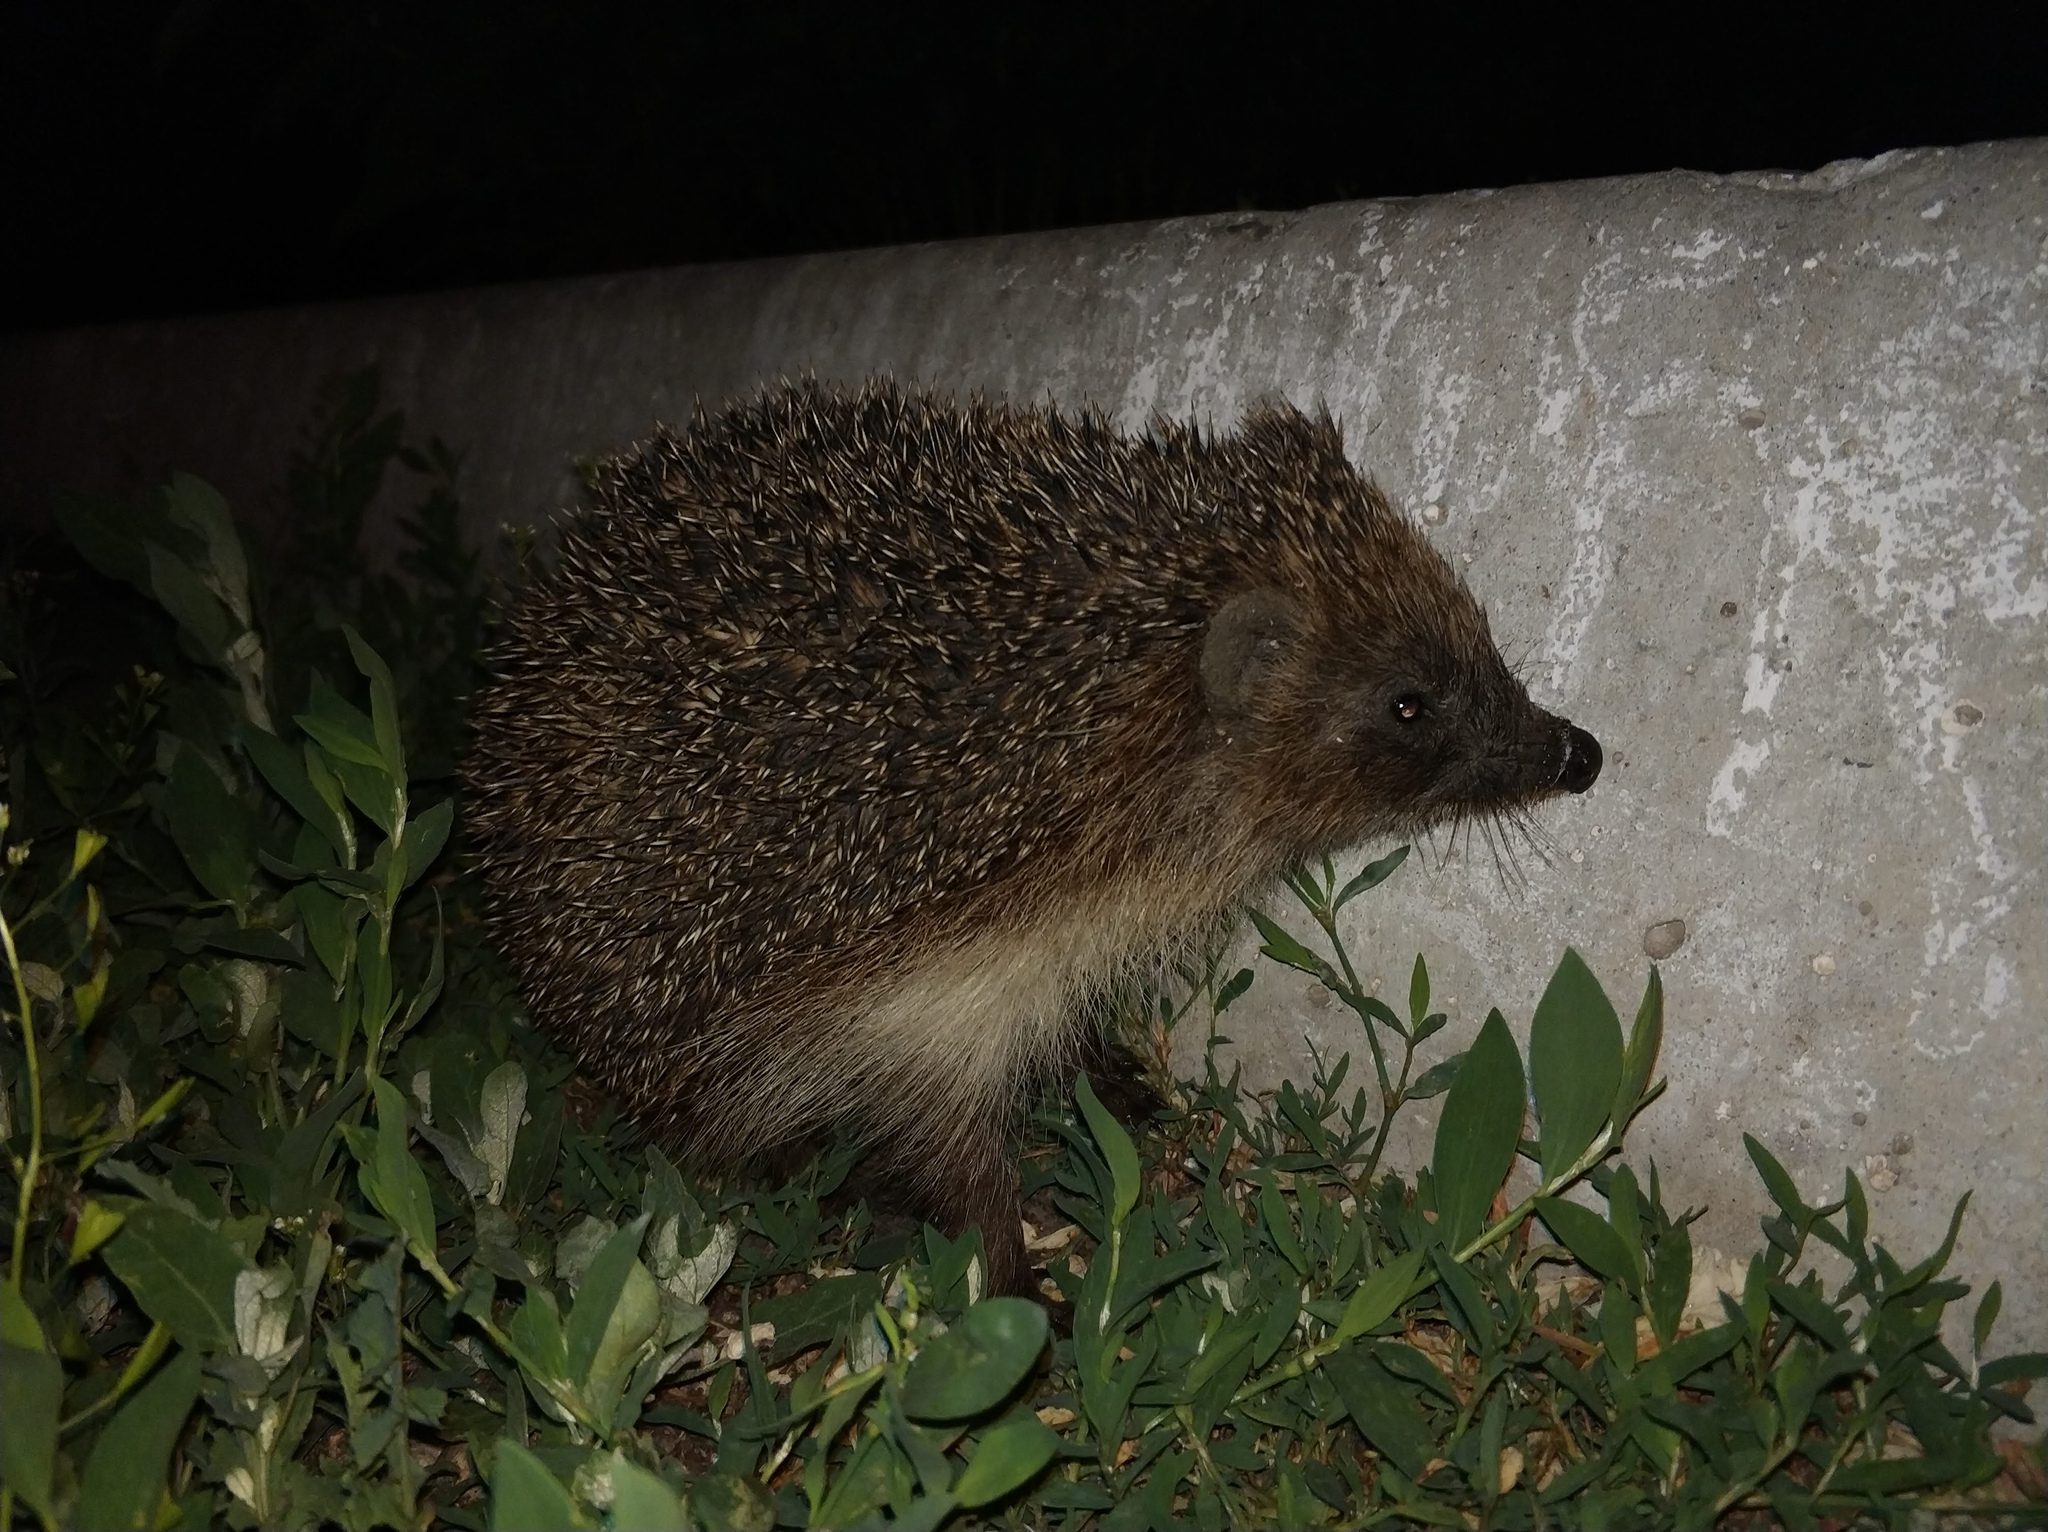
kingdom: Animalia
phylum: Chordata
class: Mammalia
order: Erinaceomorpha
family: Erinaceidae
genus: Erinaceus
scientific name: Erinaceus roumanicus
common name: Northern white-breasted hedgehog
